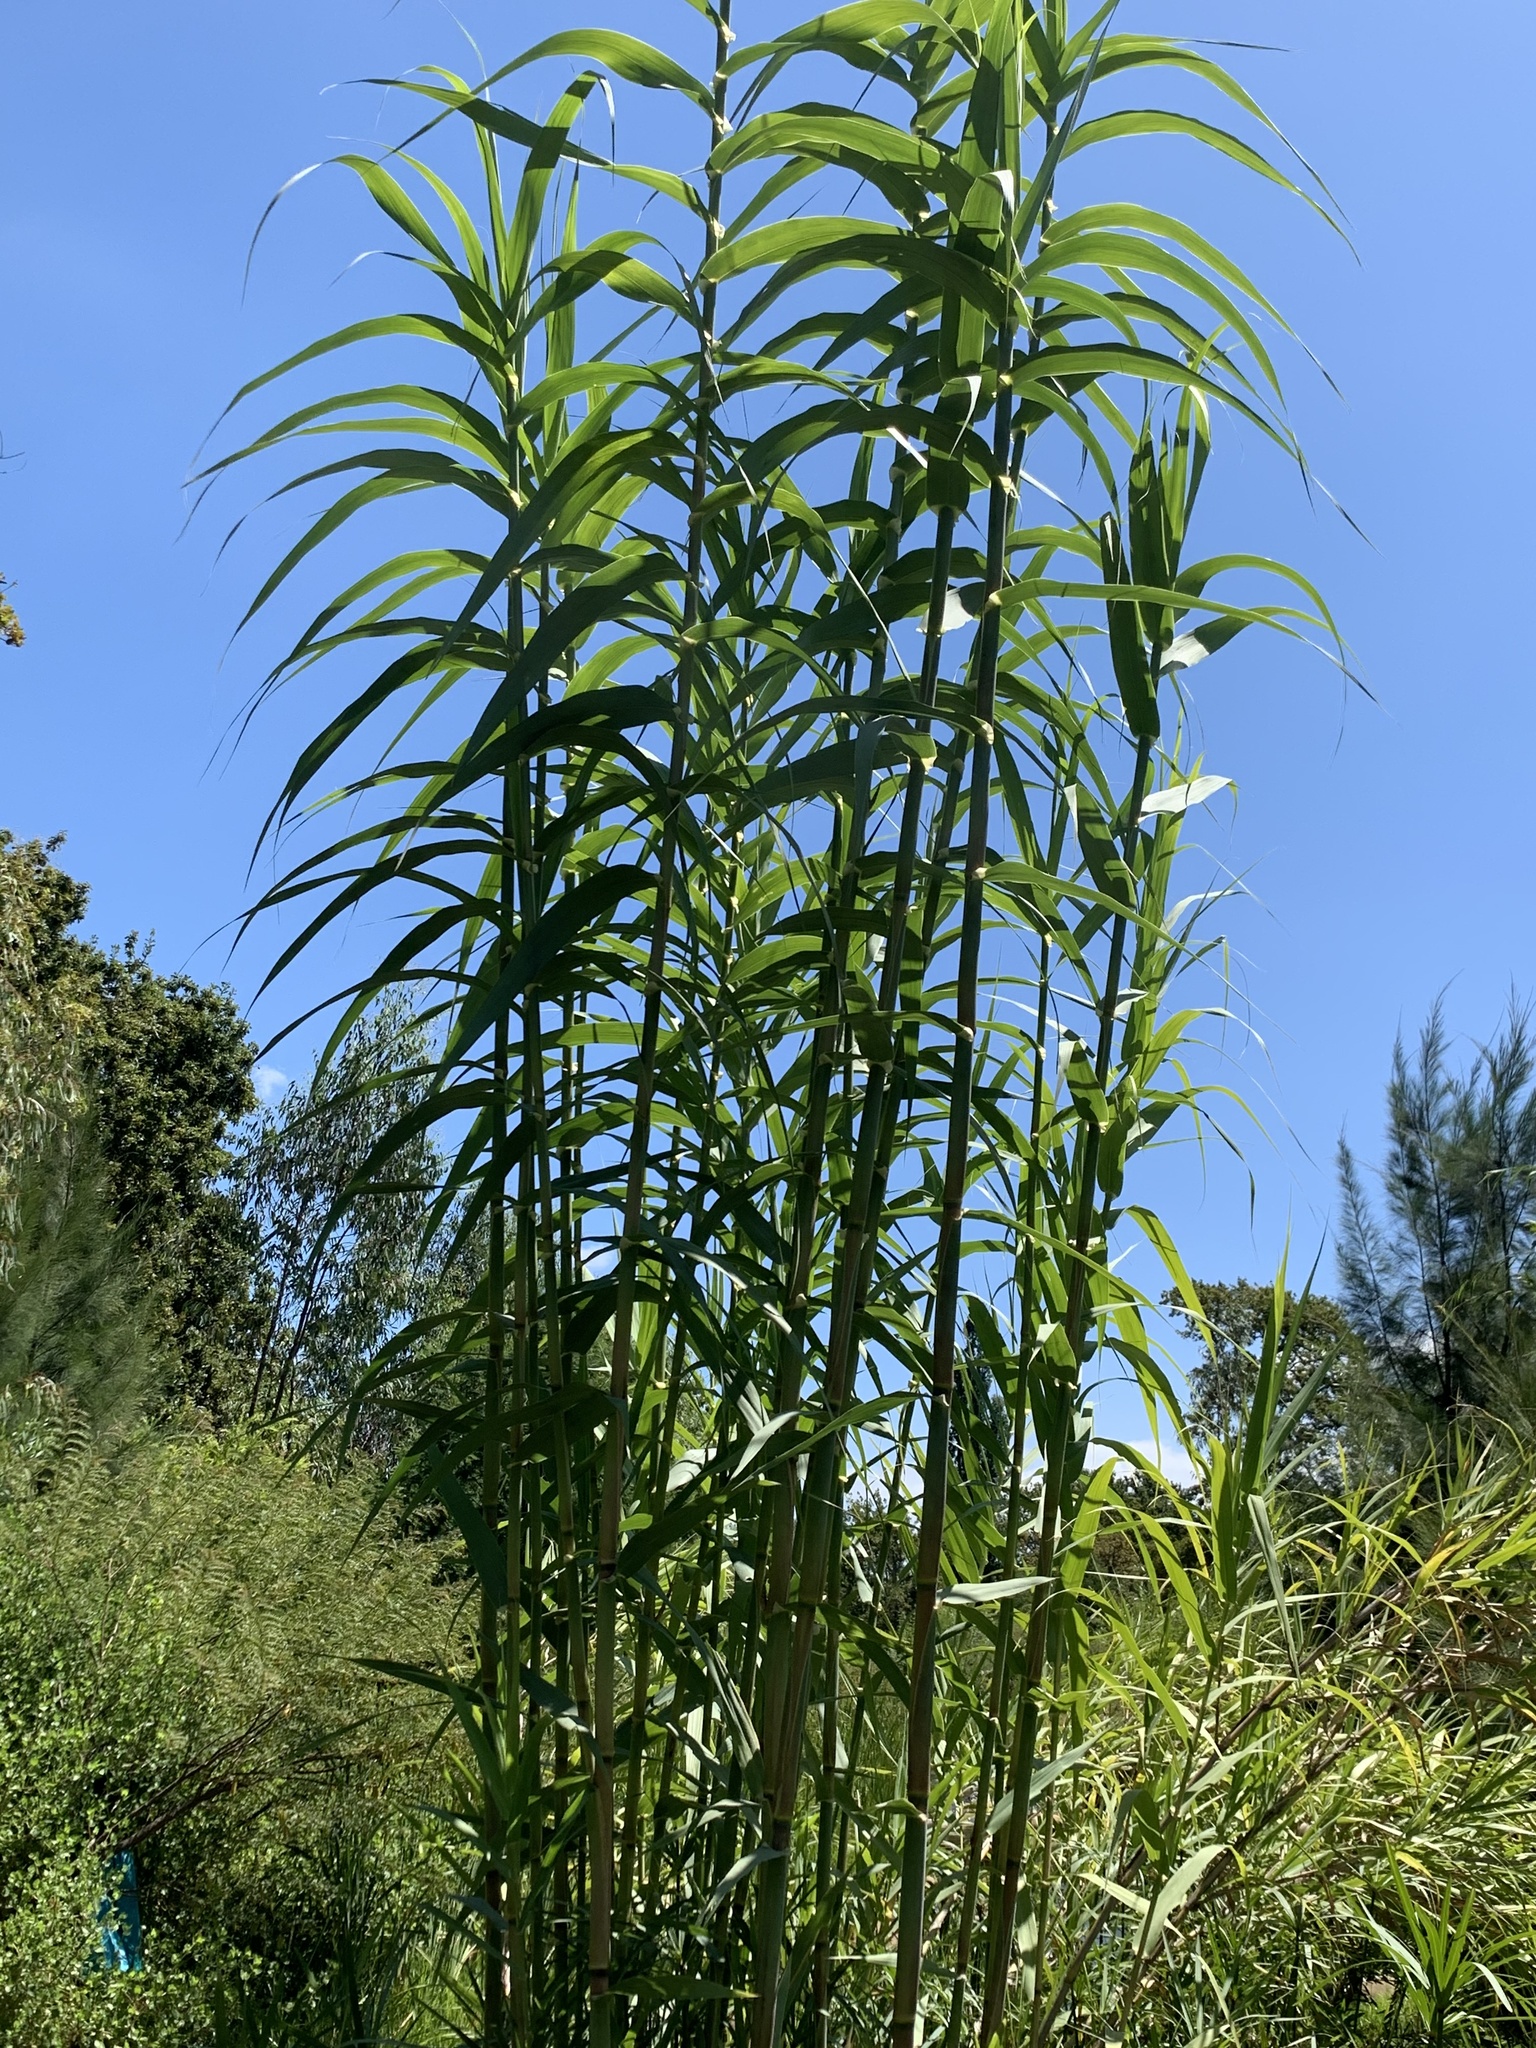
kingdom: Plantae
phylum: Tracheophyta
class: Liliopsida
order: Poales
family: Poaceae
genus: Arundo
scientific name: Arundo donax
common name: Giant reed
